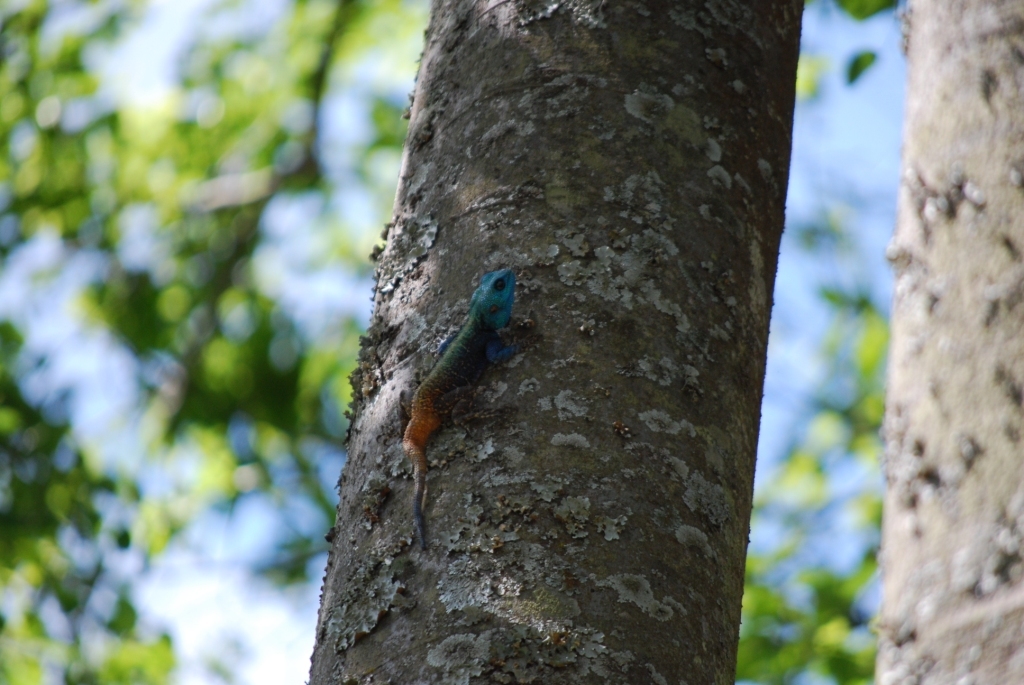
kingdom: Animalia
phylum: Chordata
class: Squamata
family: Agamidae
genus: Acanthocercus
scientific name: Acanthocercus atricollis
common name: Southern tree agama
